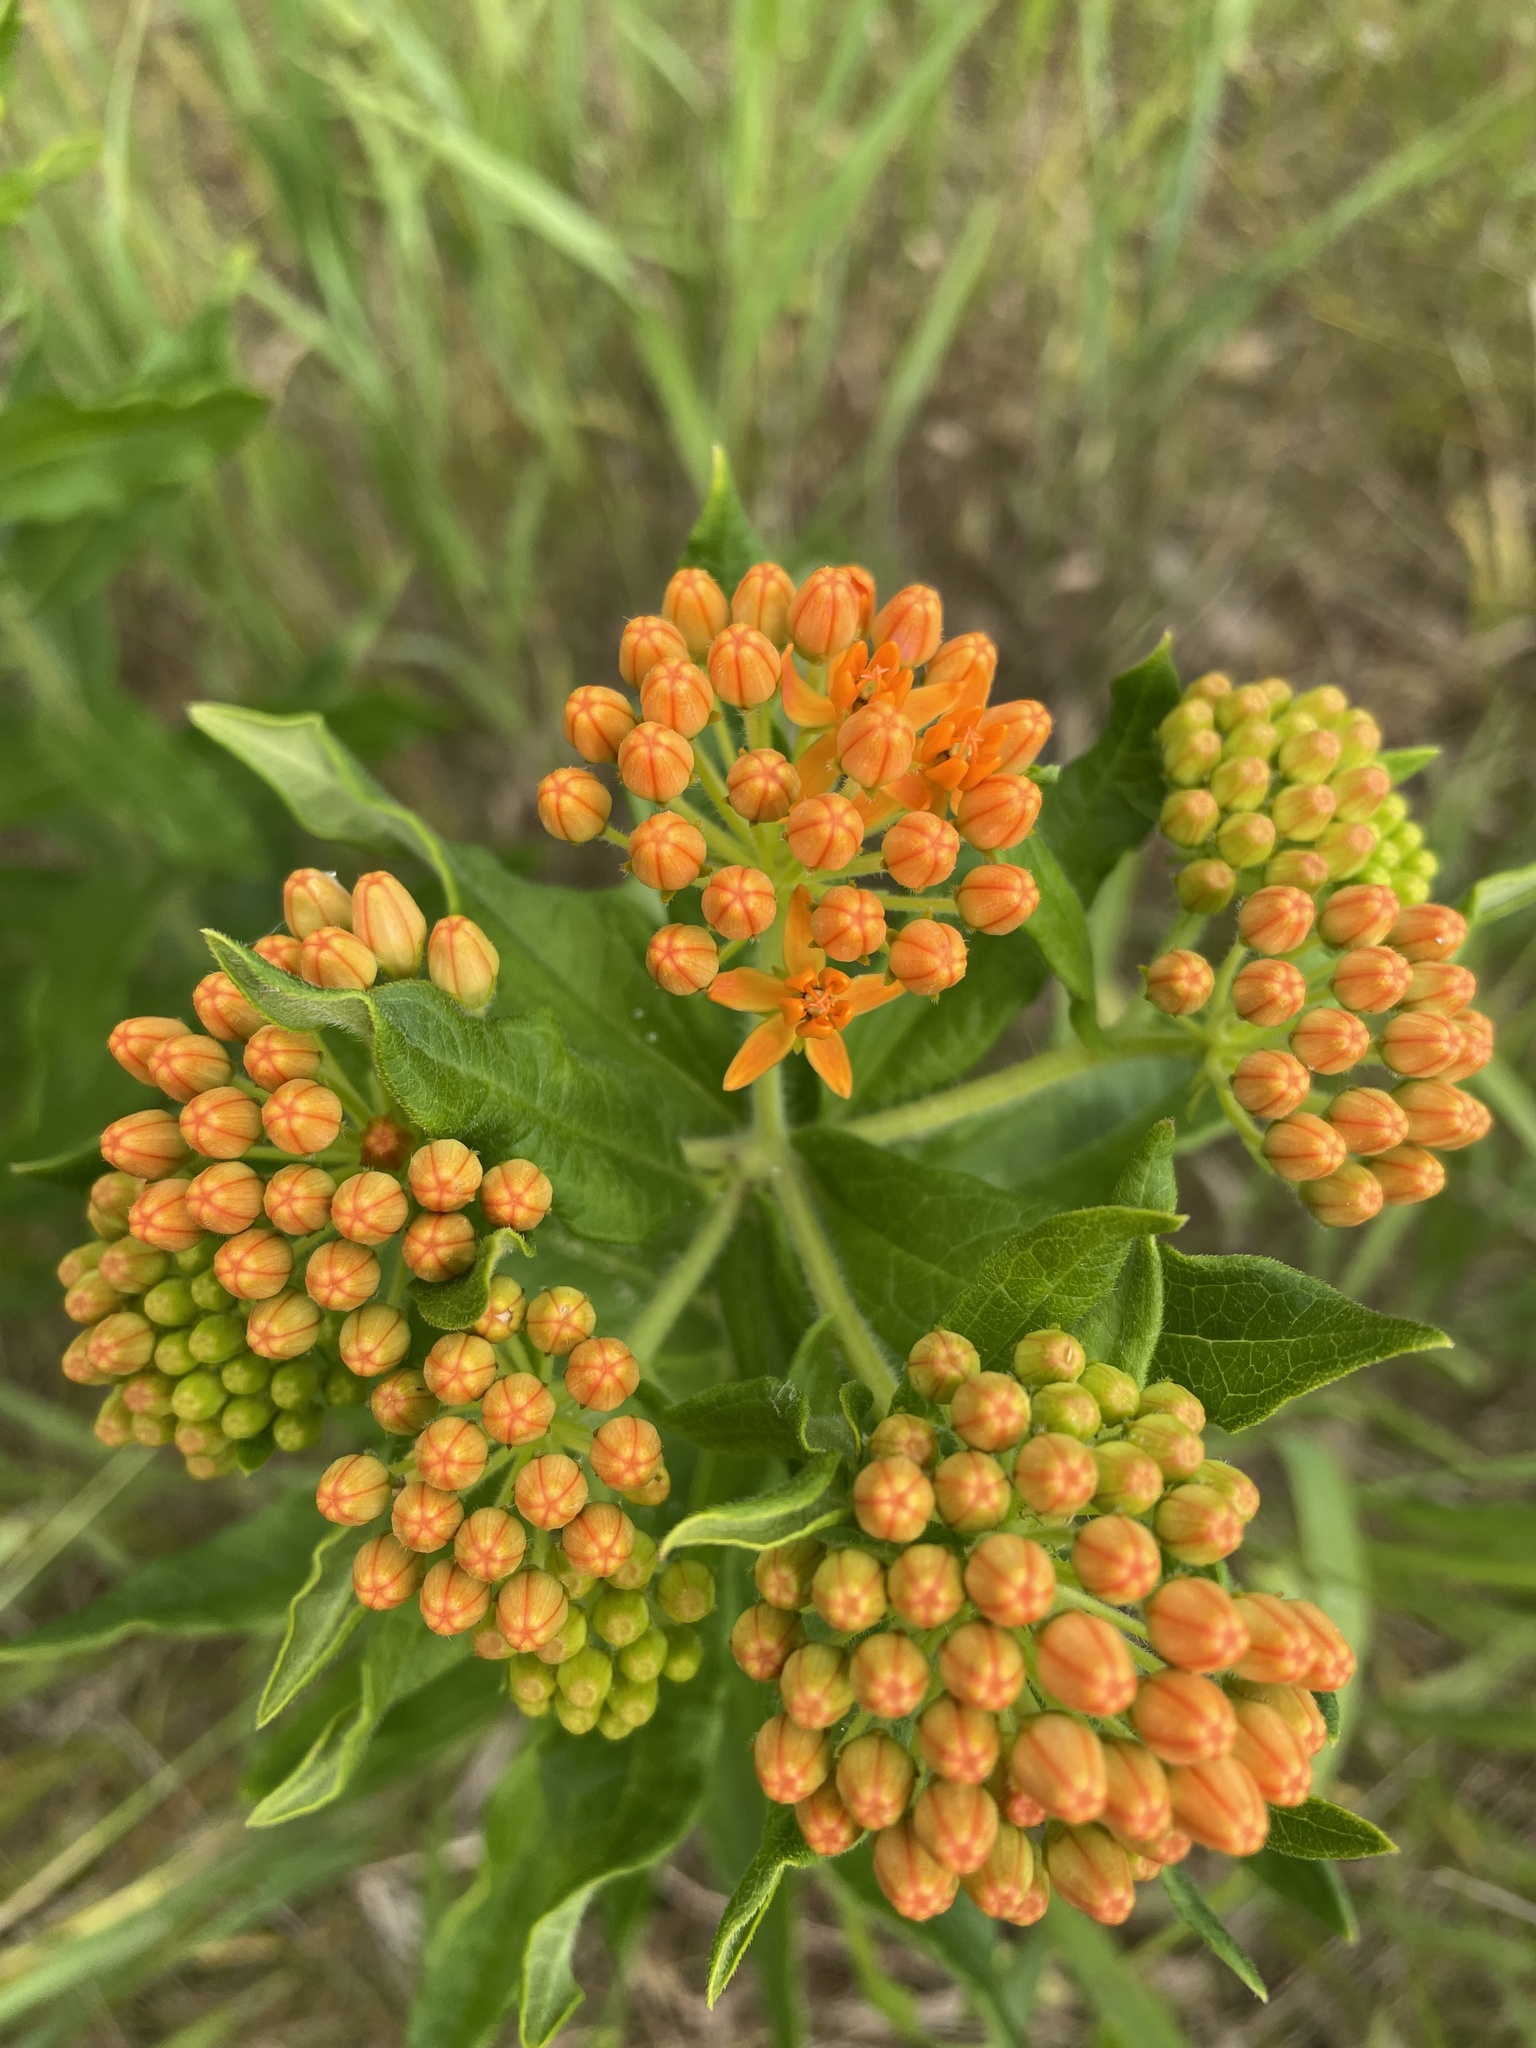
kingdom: Plantae
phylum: Tracheophyta
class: Magnoliopsida
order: Gentianales
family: Apocynaceae
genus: Asclepias
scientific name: Asclepias tuberosa
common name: Butterfly milkweed
